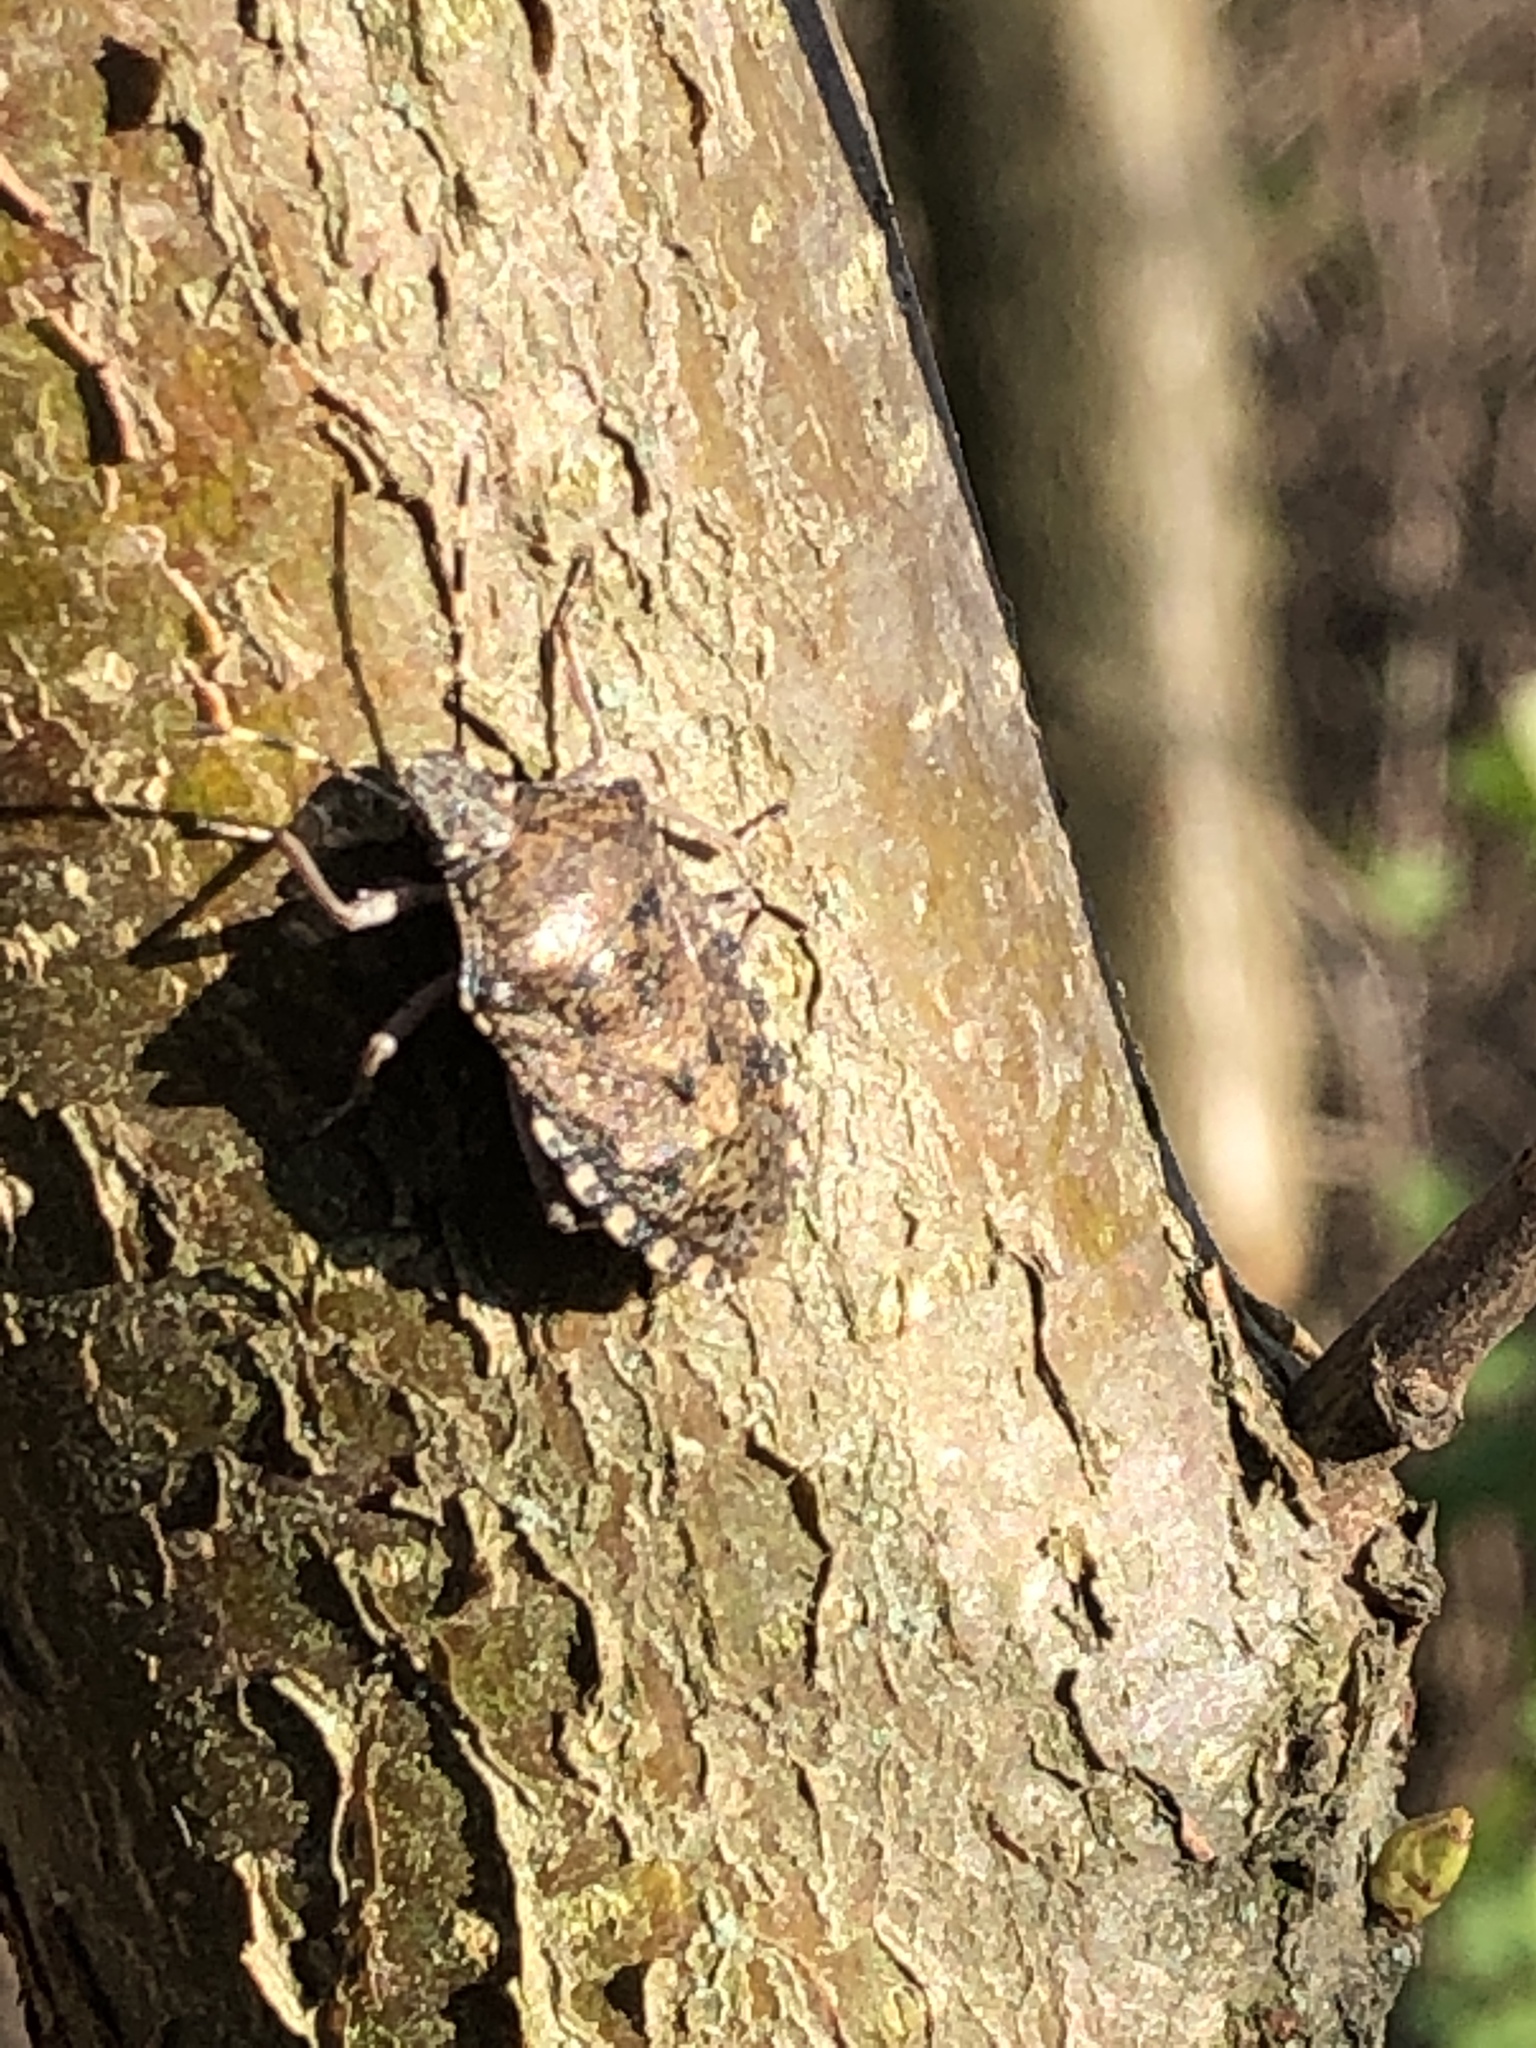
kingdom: Animalia
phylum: Arthropoda
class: Insecta
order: Hemiptera
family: Pentatomidae
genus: Rhaphigaster
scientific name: Rhaphigaster nebulosa
